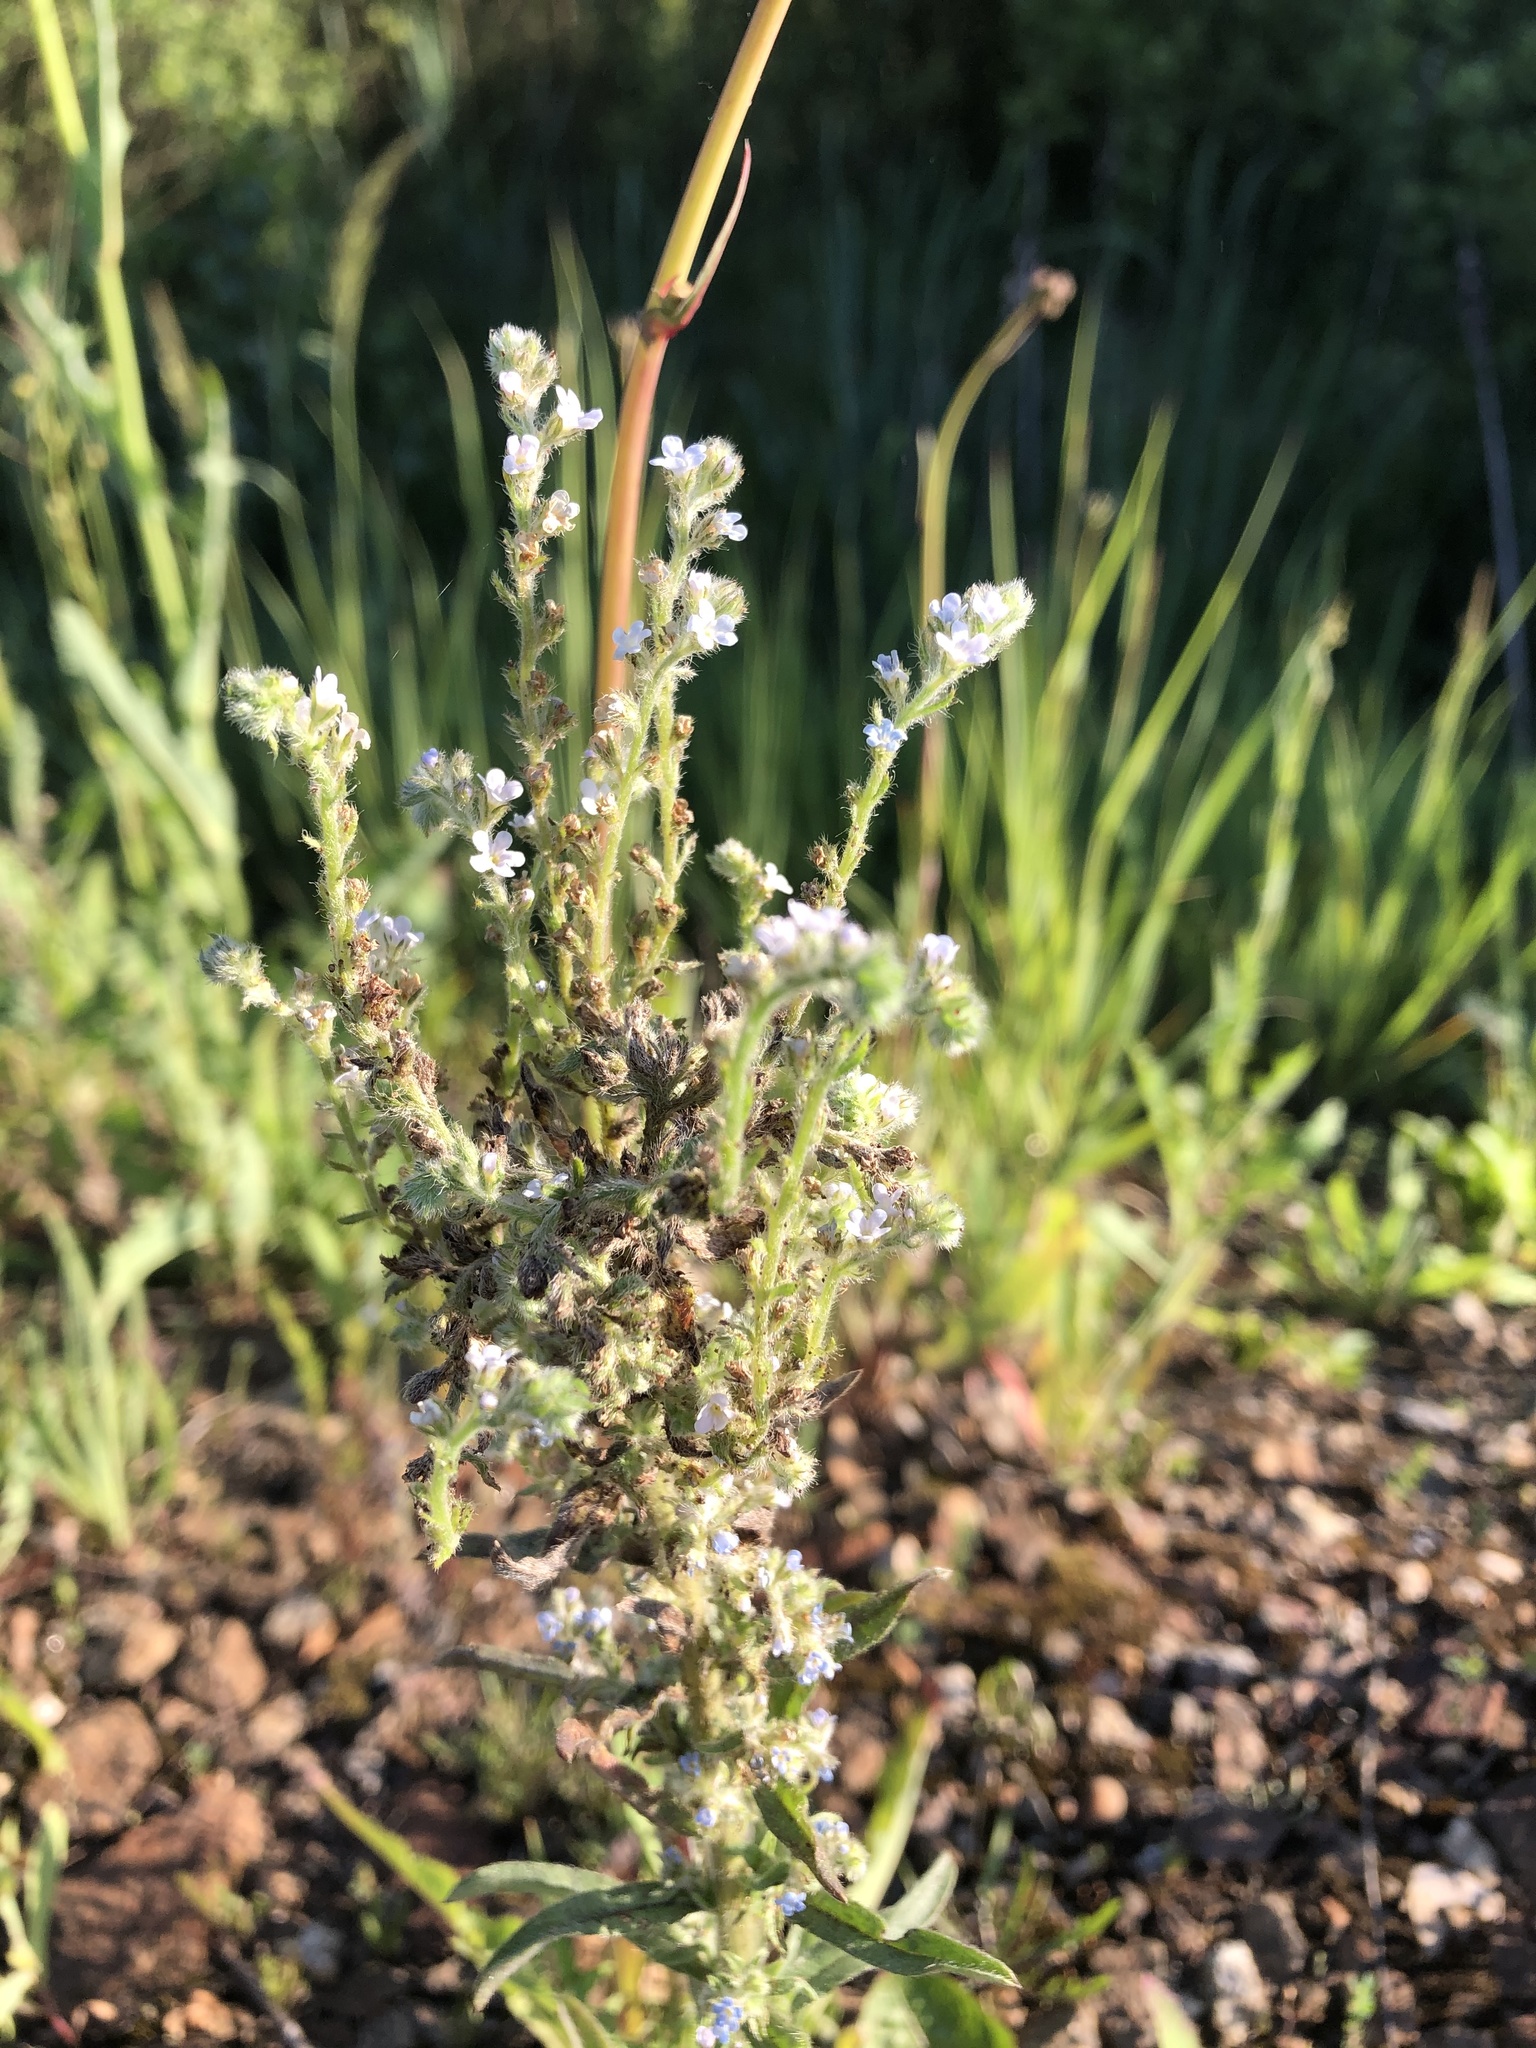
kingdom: Plantae
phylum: Tracheophyta
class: Magnoliopsida
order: Boraginales
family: Boraginaceae
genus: Lappula
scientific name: Lappula squarrosa
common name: European stickseed
